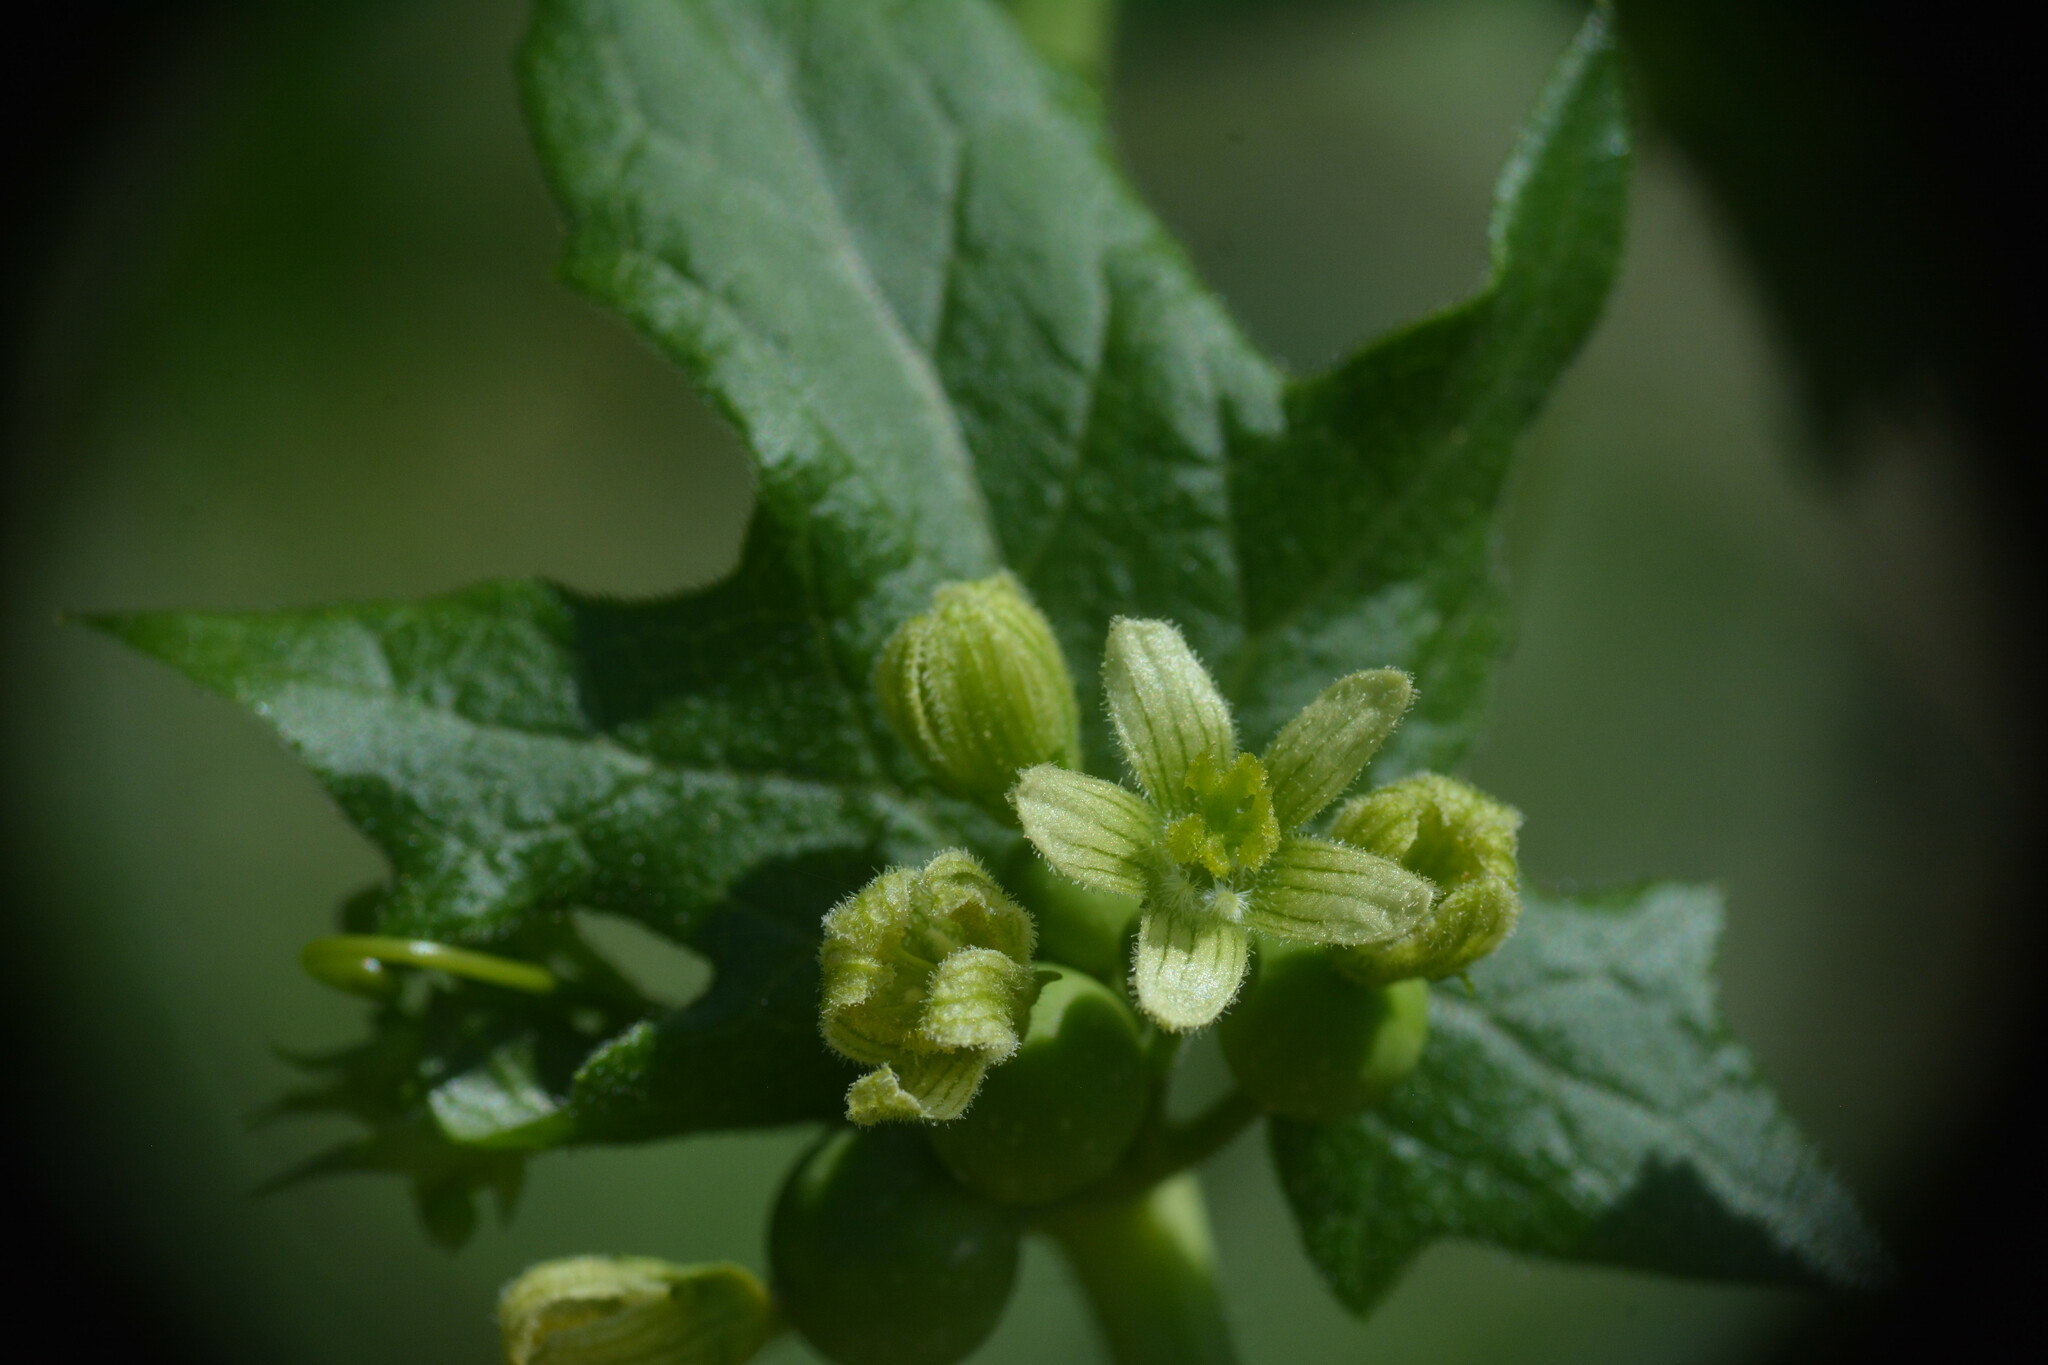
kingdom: Plantae
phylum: Tracheophyta
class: Magnoliopsida
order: Cucurbitales
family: Cucurbitaceae
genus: Bryonia
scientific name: Bryonia cretica
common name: Cretan bryony
